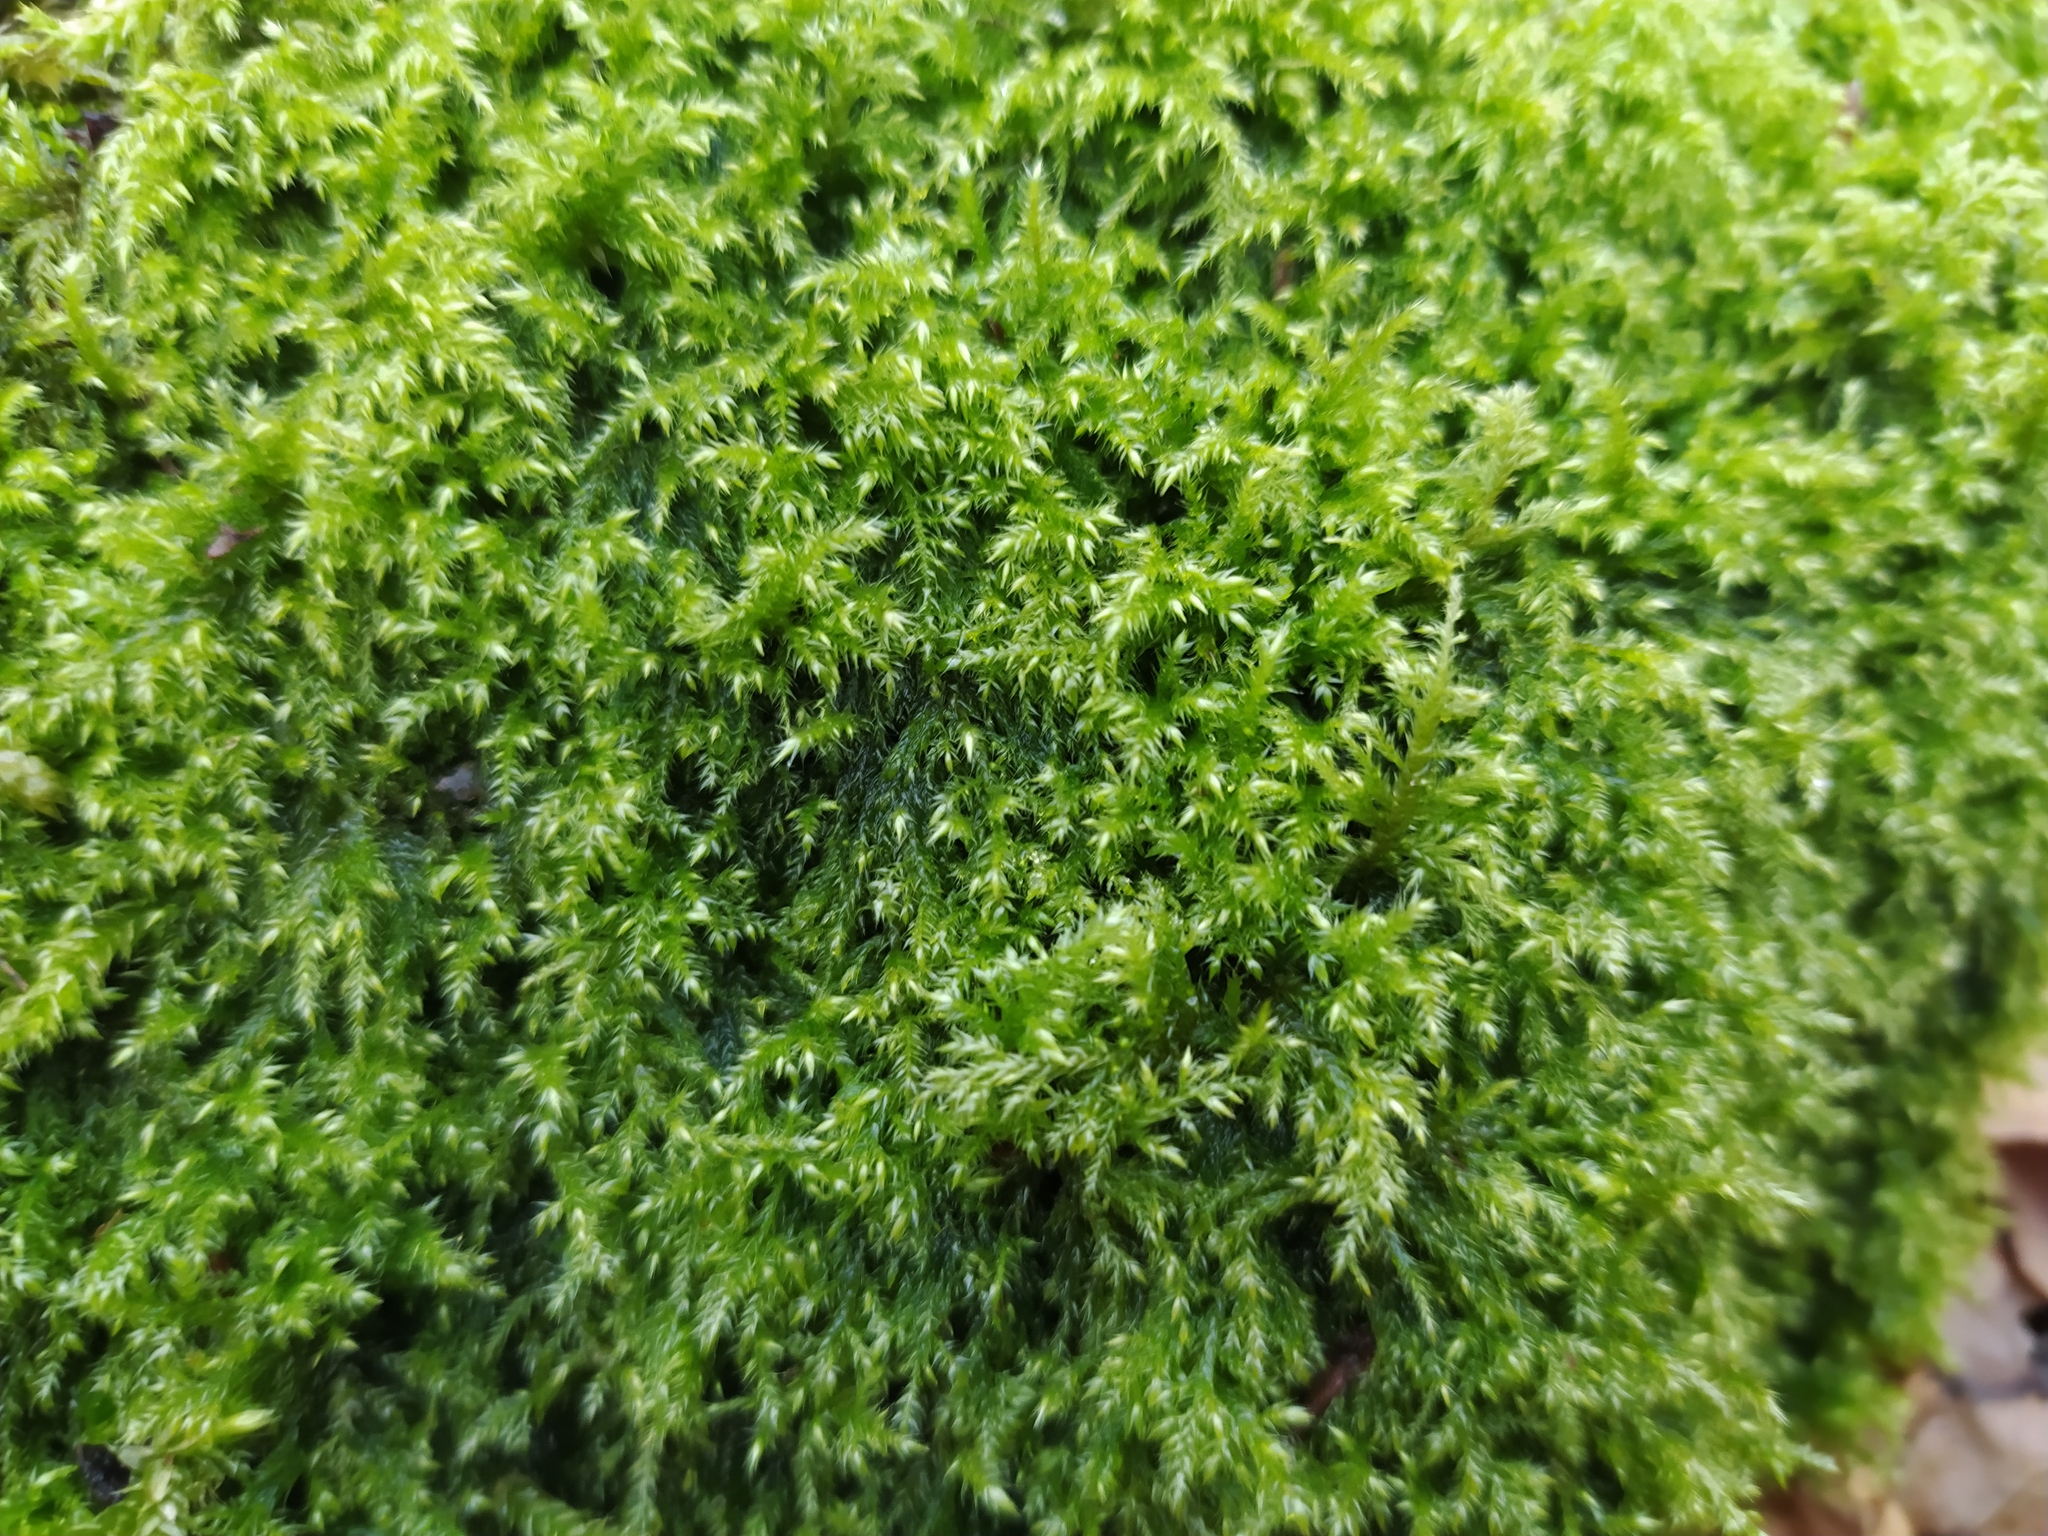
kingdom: Plantae
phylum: Bryophyta
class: Bryopsida
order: Hypnales
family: Lembophyllaceae
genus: Pseudisothecium
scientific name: Pseudisothecium myosuroides
